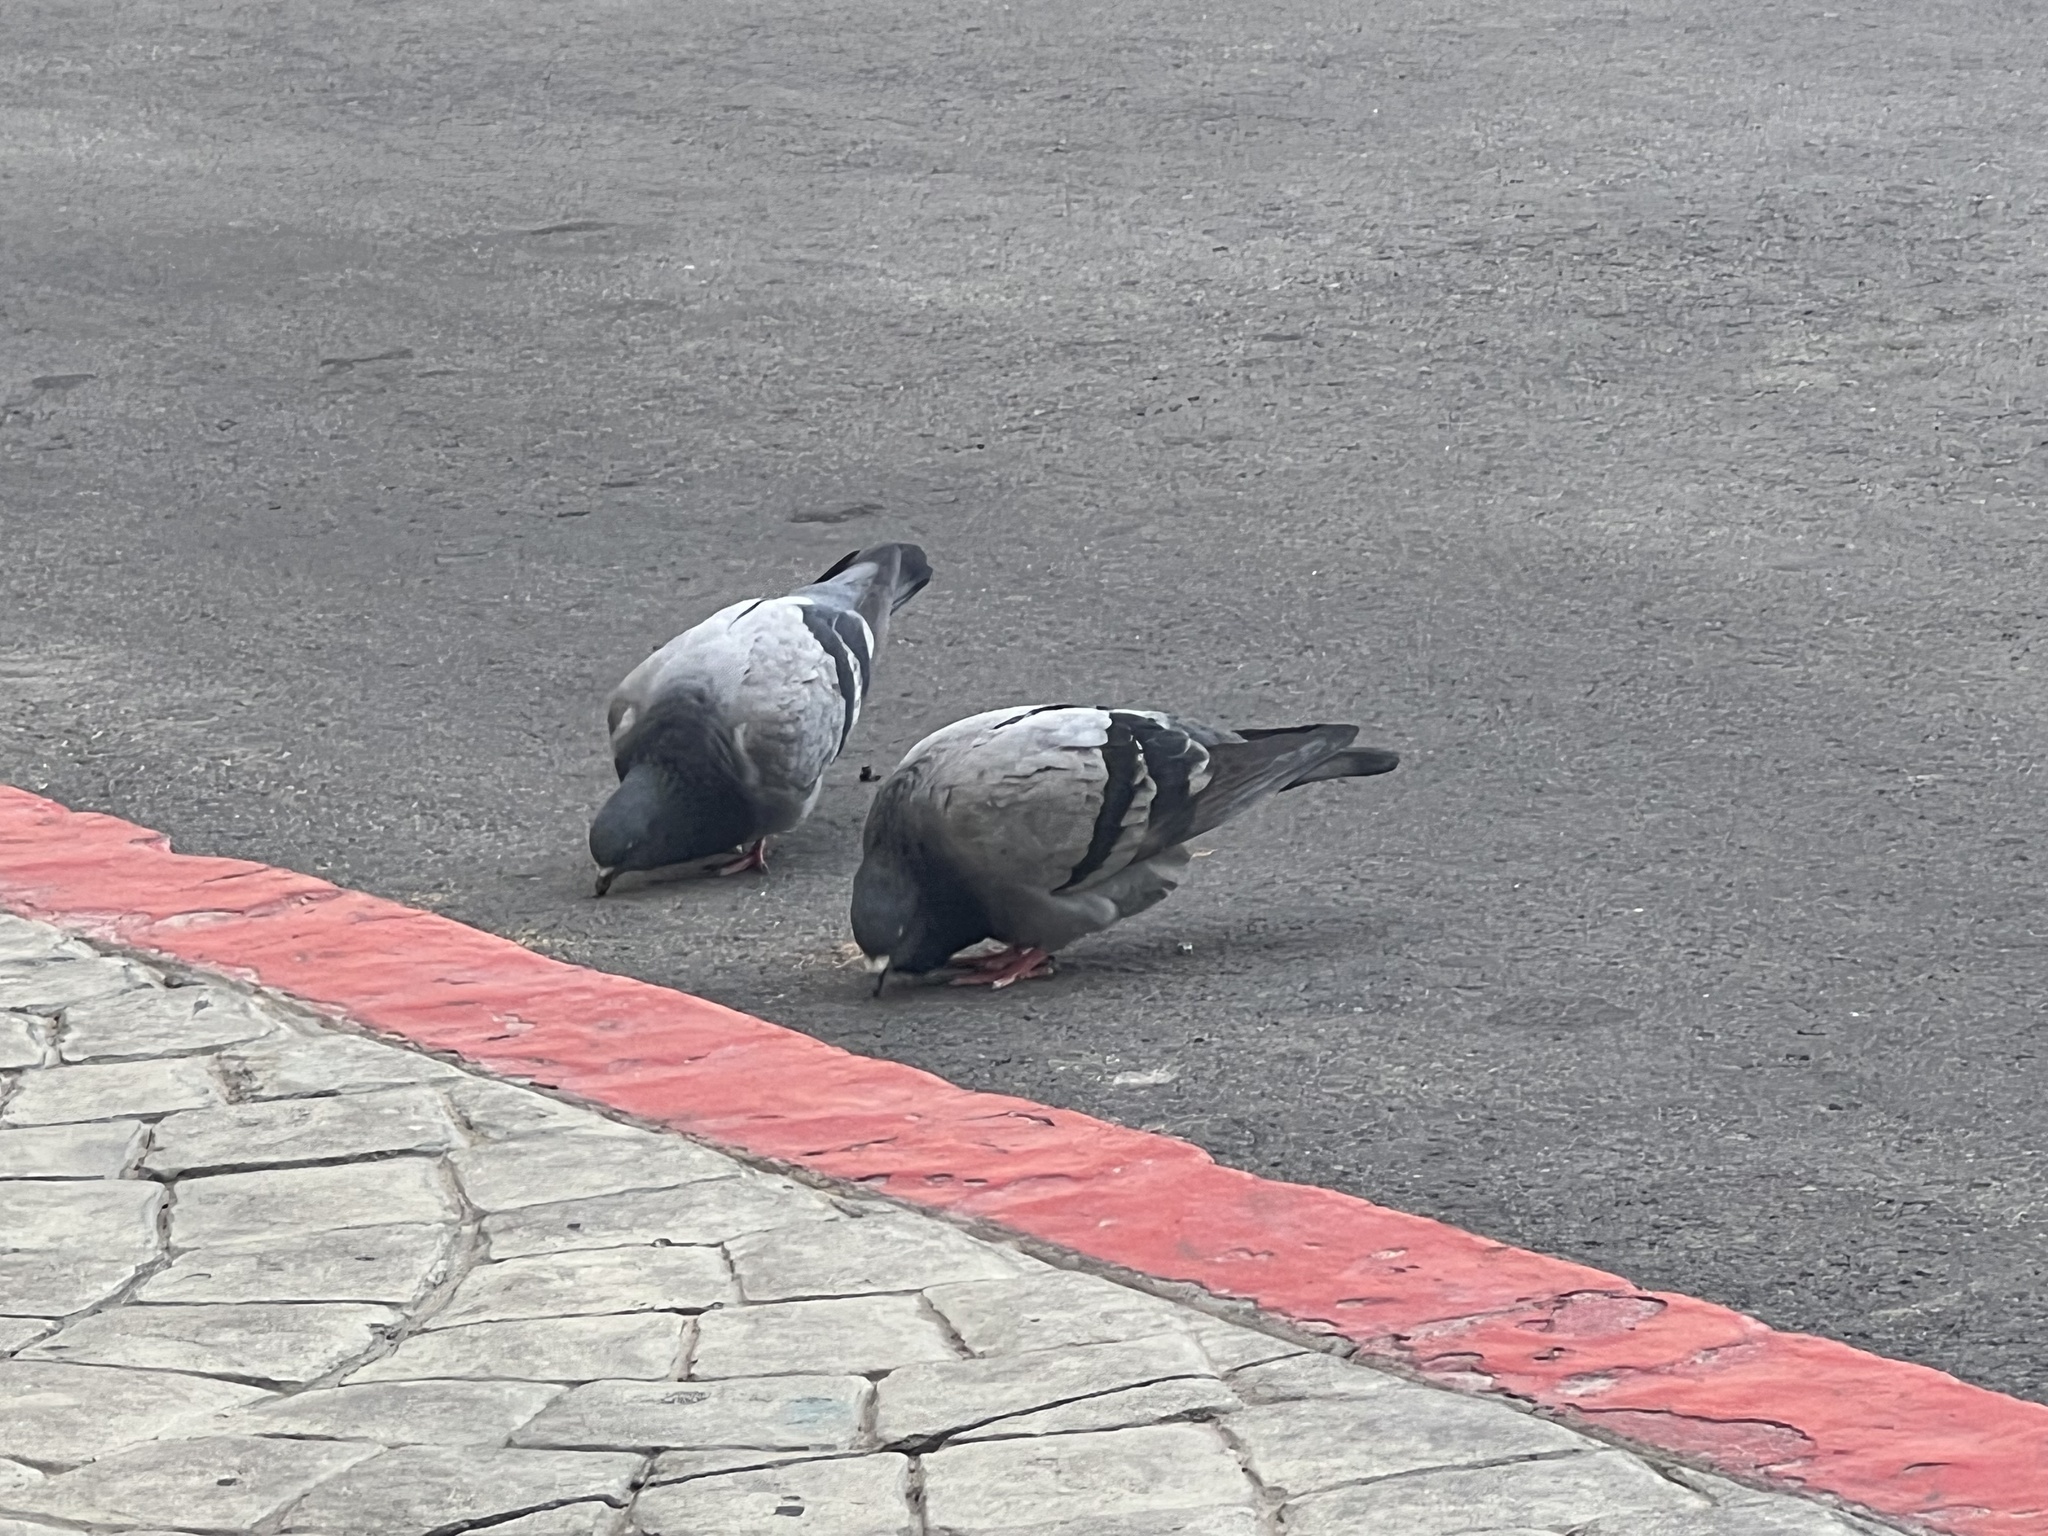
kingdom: Animalia
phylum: Chordata
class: Aves
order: Columbiformes
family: Columbidae
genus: Columba
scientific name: Columba livia
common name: Rock pigeon
